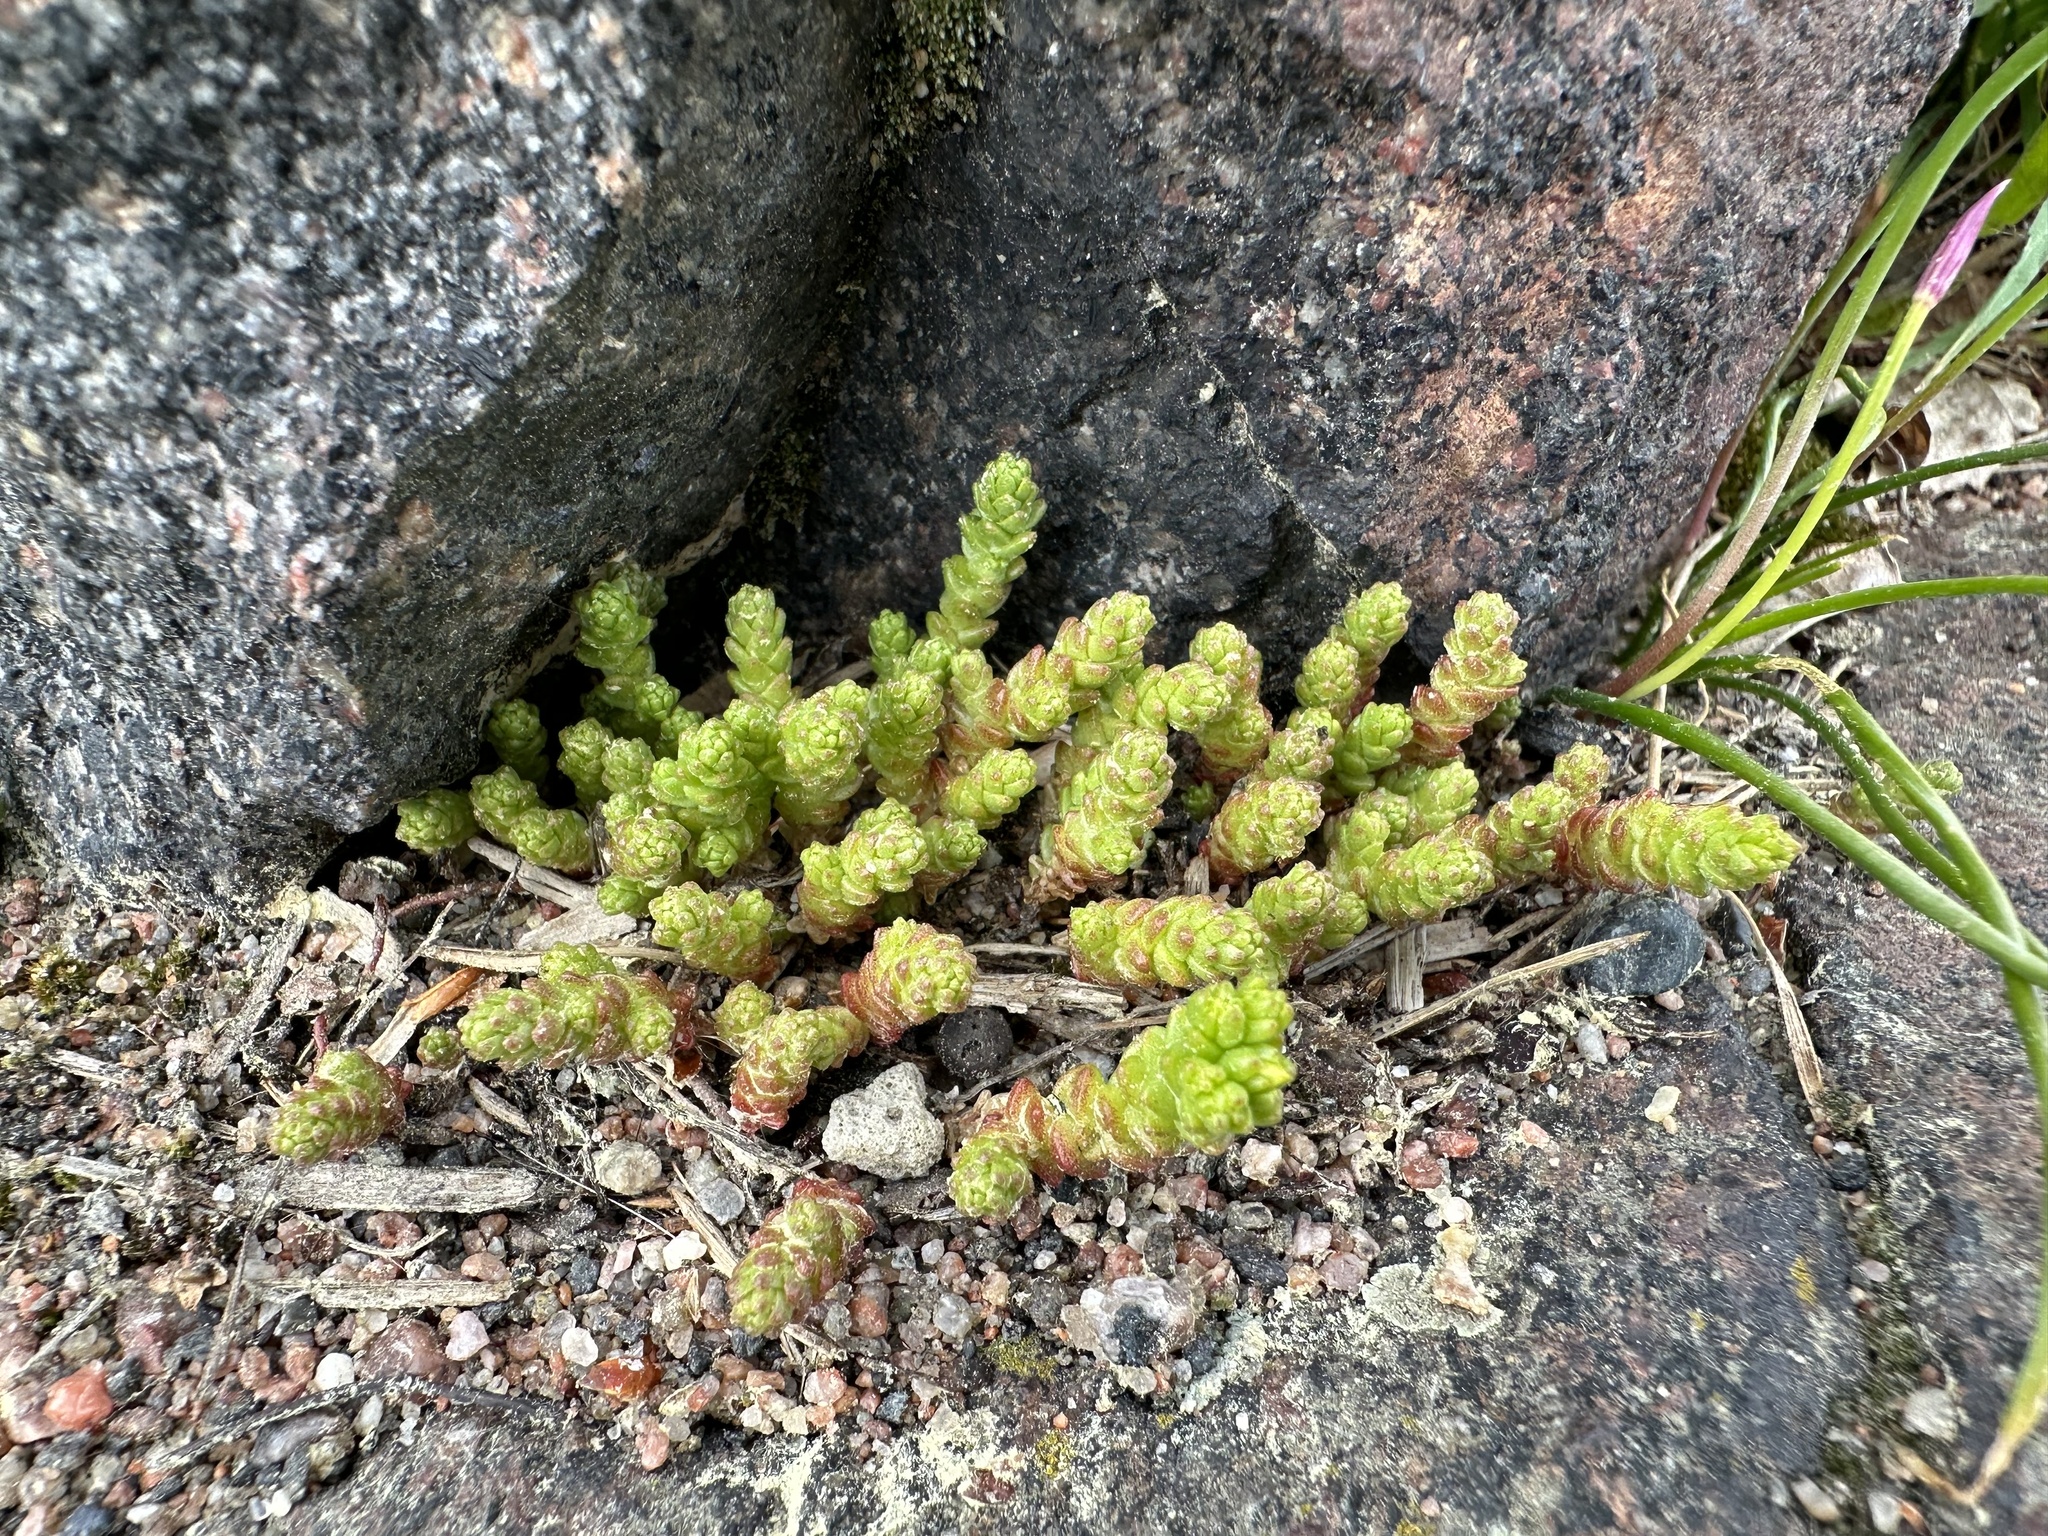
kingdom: Plantae
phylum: Tracheophyta
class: Magnoliopsida
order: Saxifragales
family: Crassulaceae
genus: Sedum
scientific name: Sedum acre
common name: Biting stonecrop
